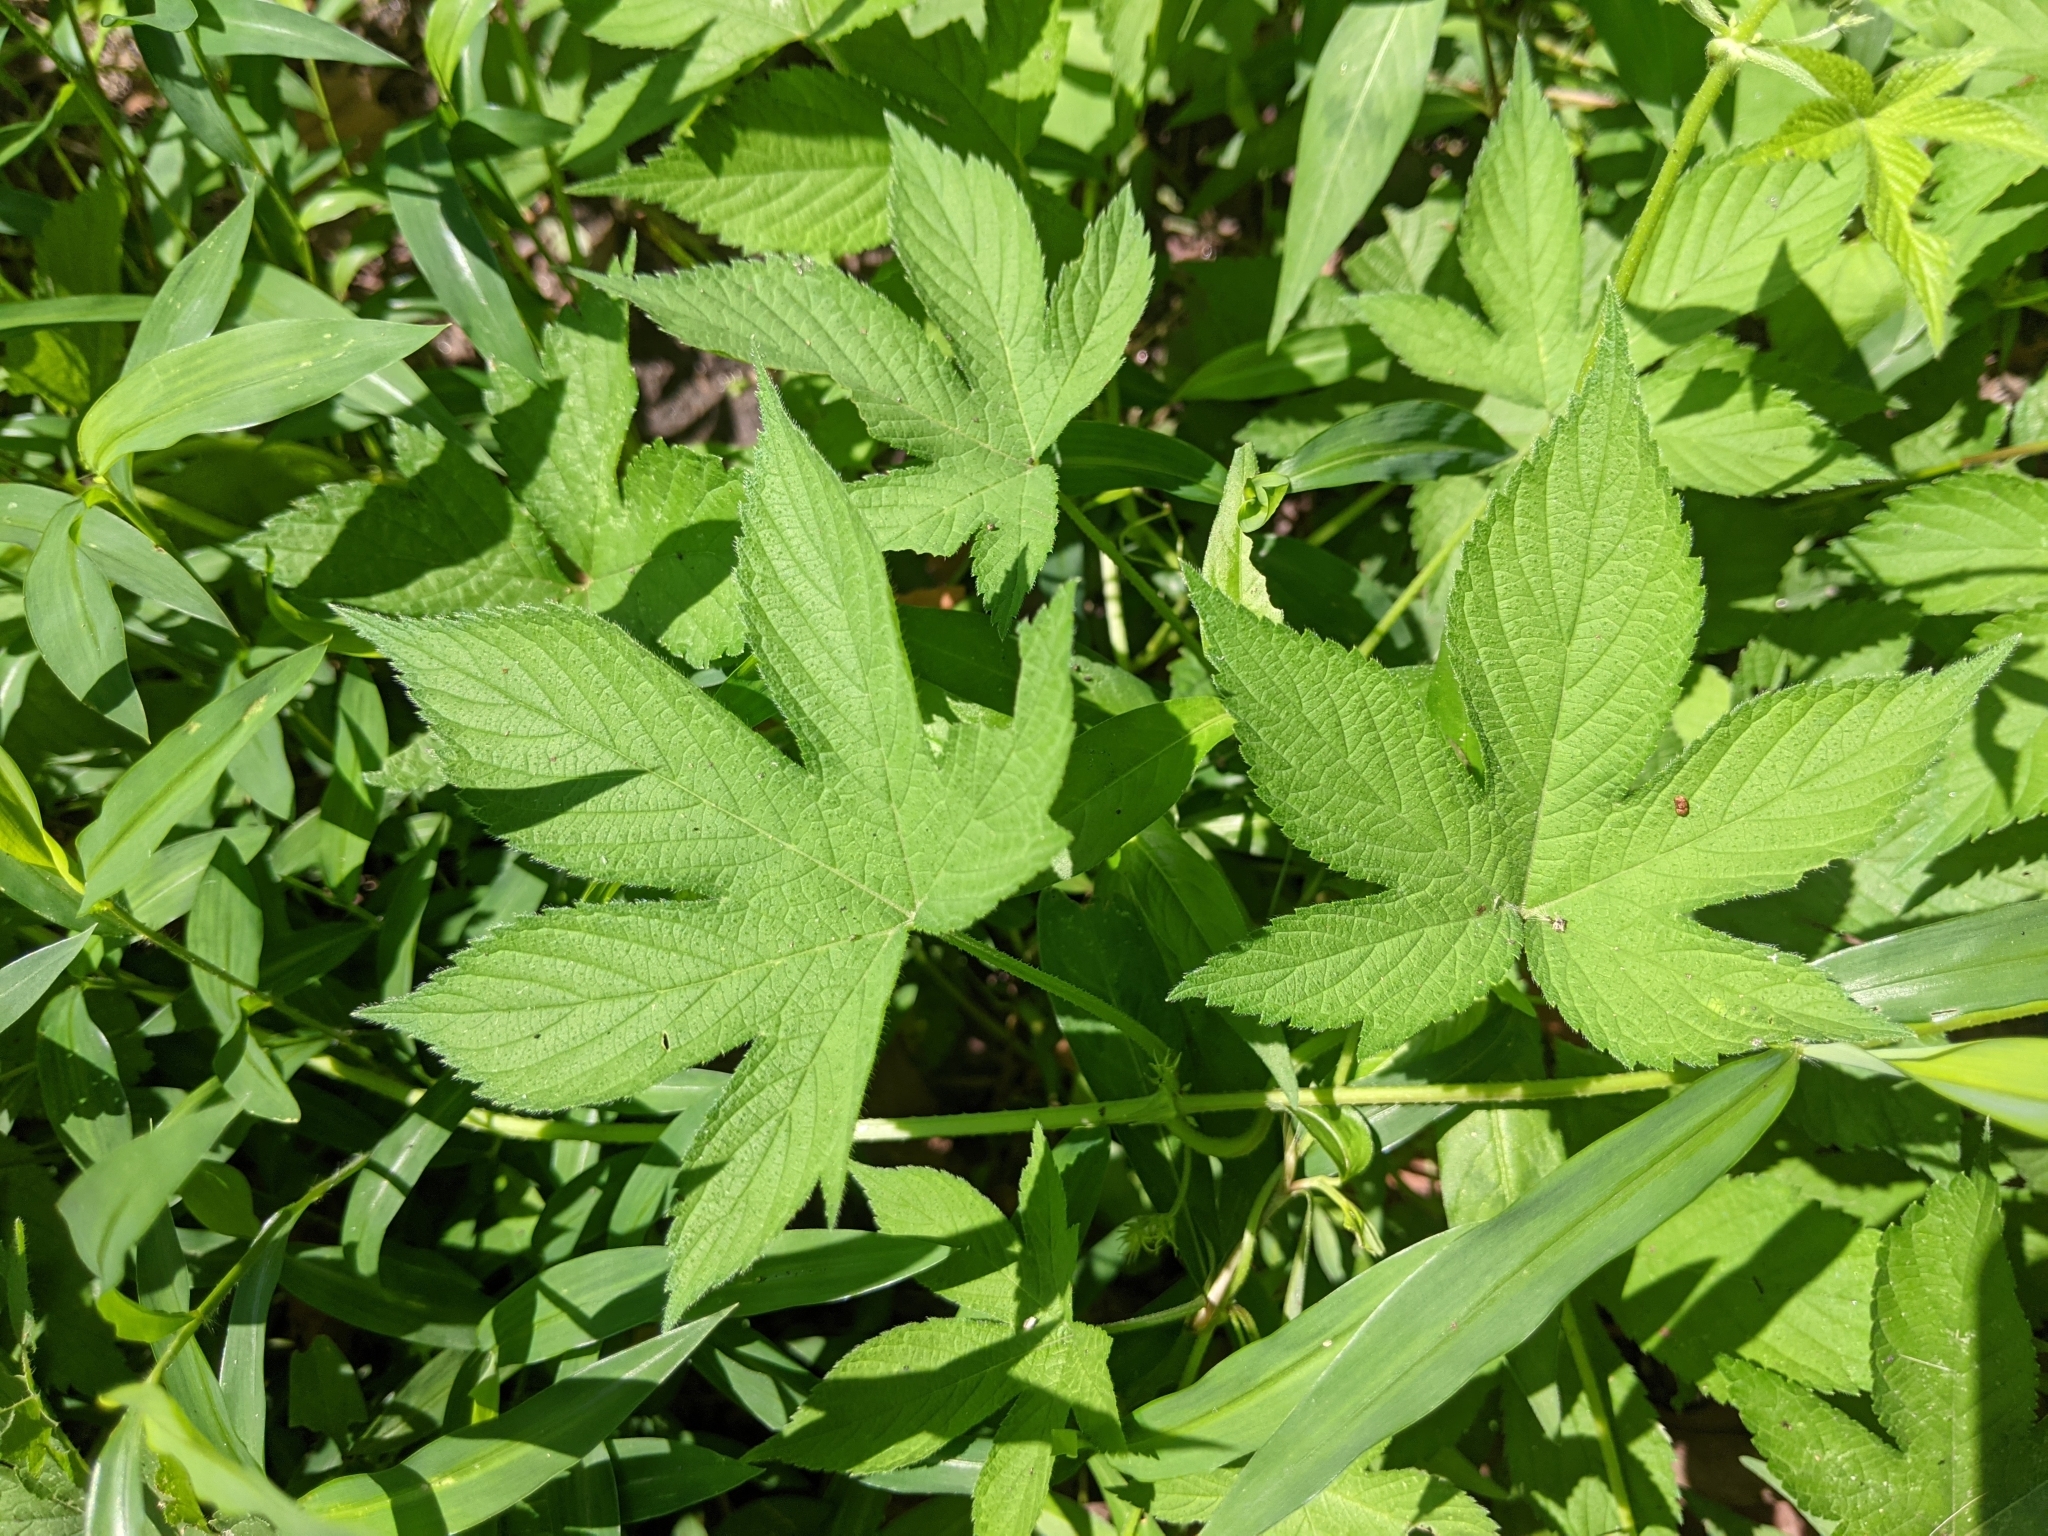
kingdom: Plantae
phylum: Tracheophyta
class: Magnoliopsida
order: Rosales
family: Cannabaceae
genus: Humulus
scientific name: Humulus scandens
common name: Japanese hop
